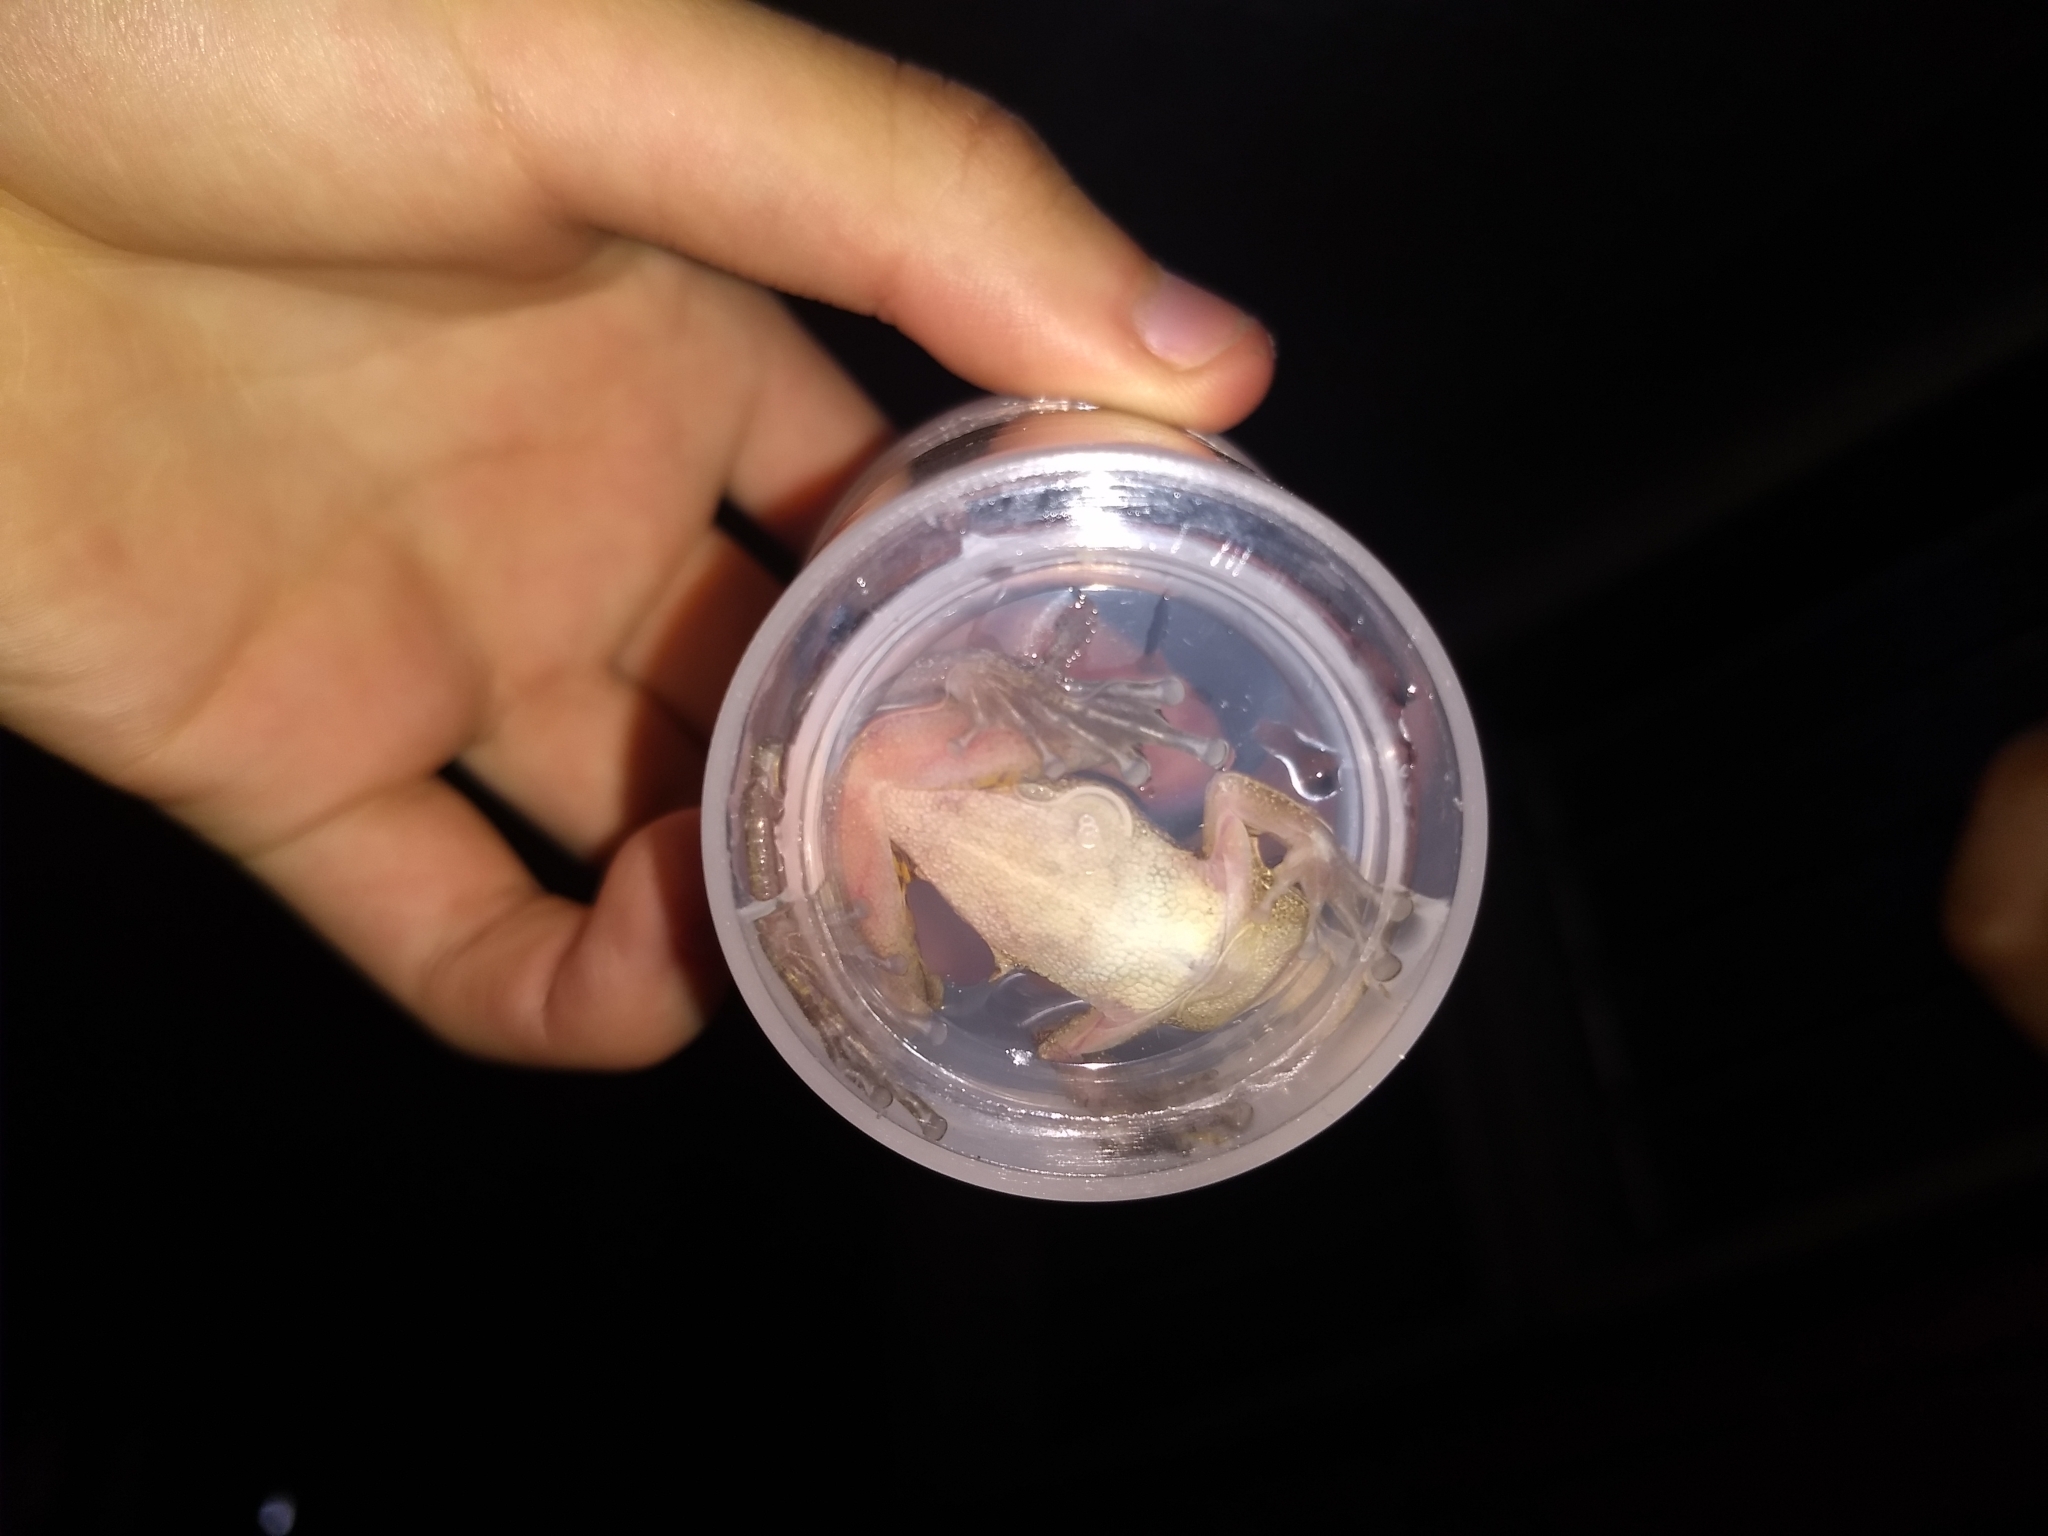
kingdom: Animalia
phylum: Chordata
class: Amphibia
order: Anura
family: Hylidae
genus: Scinax
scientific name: Scinax ruber
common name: Red snouted treefrog
